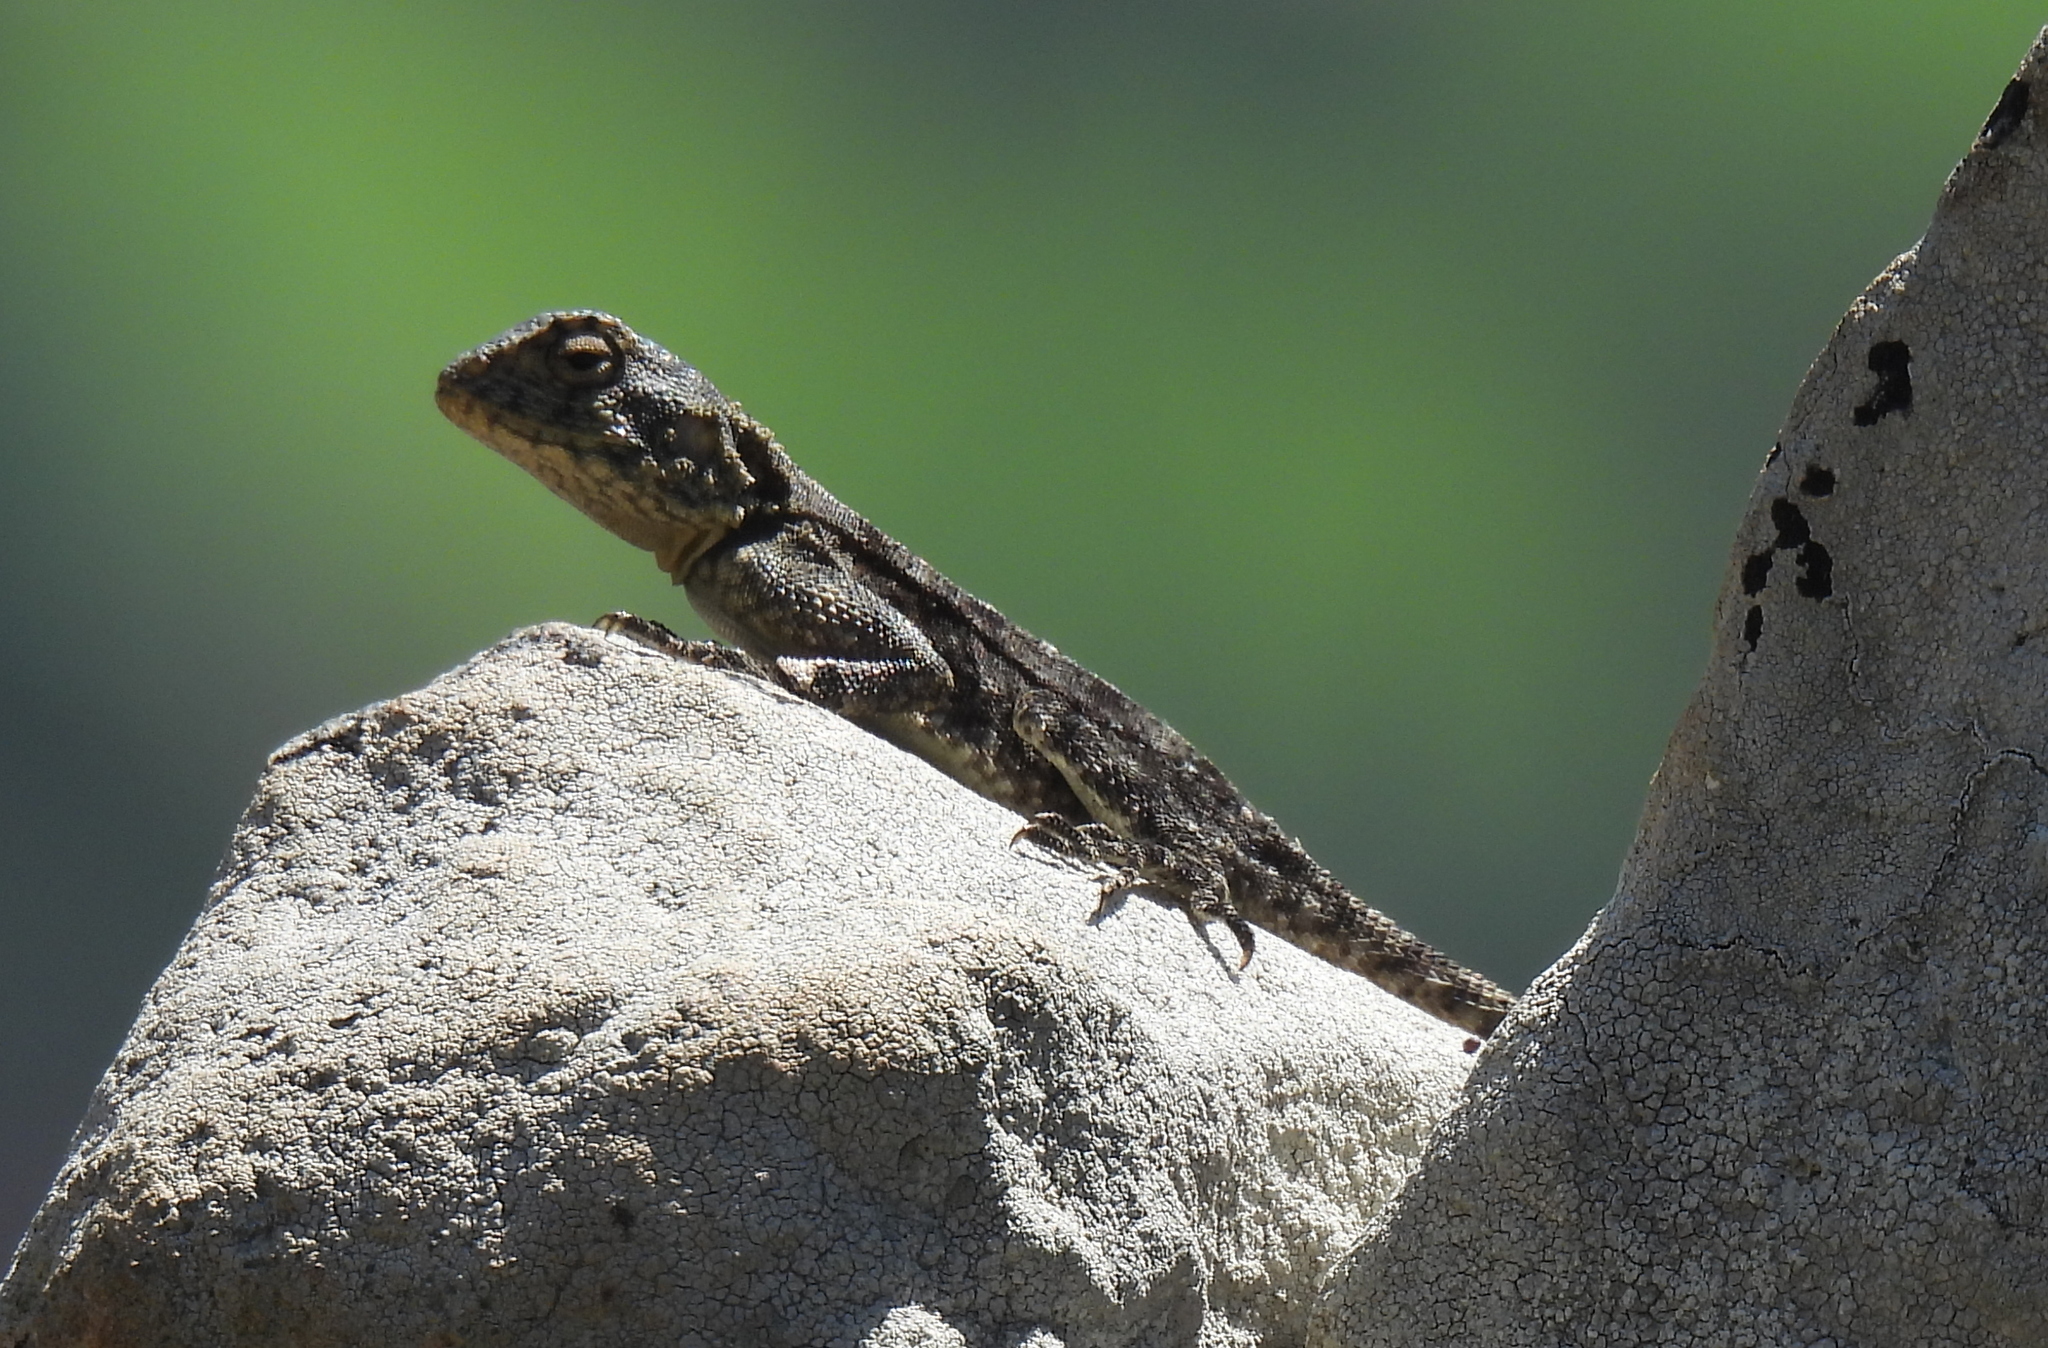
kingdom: Animalia
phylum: Chordata
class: Squamata
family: Agamidae
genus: Agama
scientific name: Agama atra
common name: Southern african rock agama
